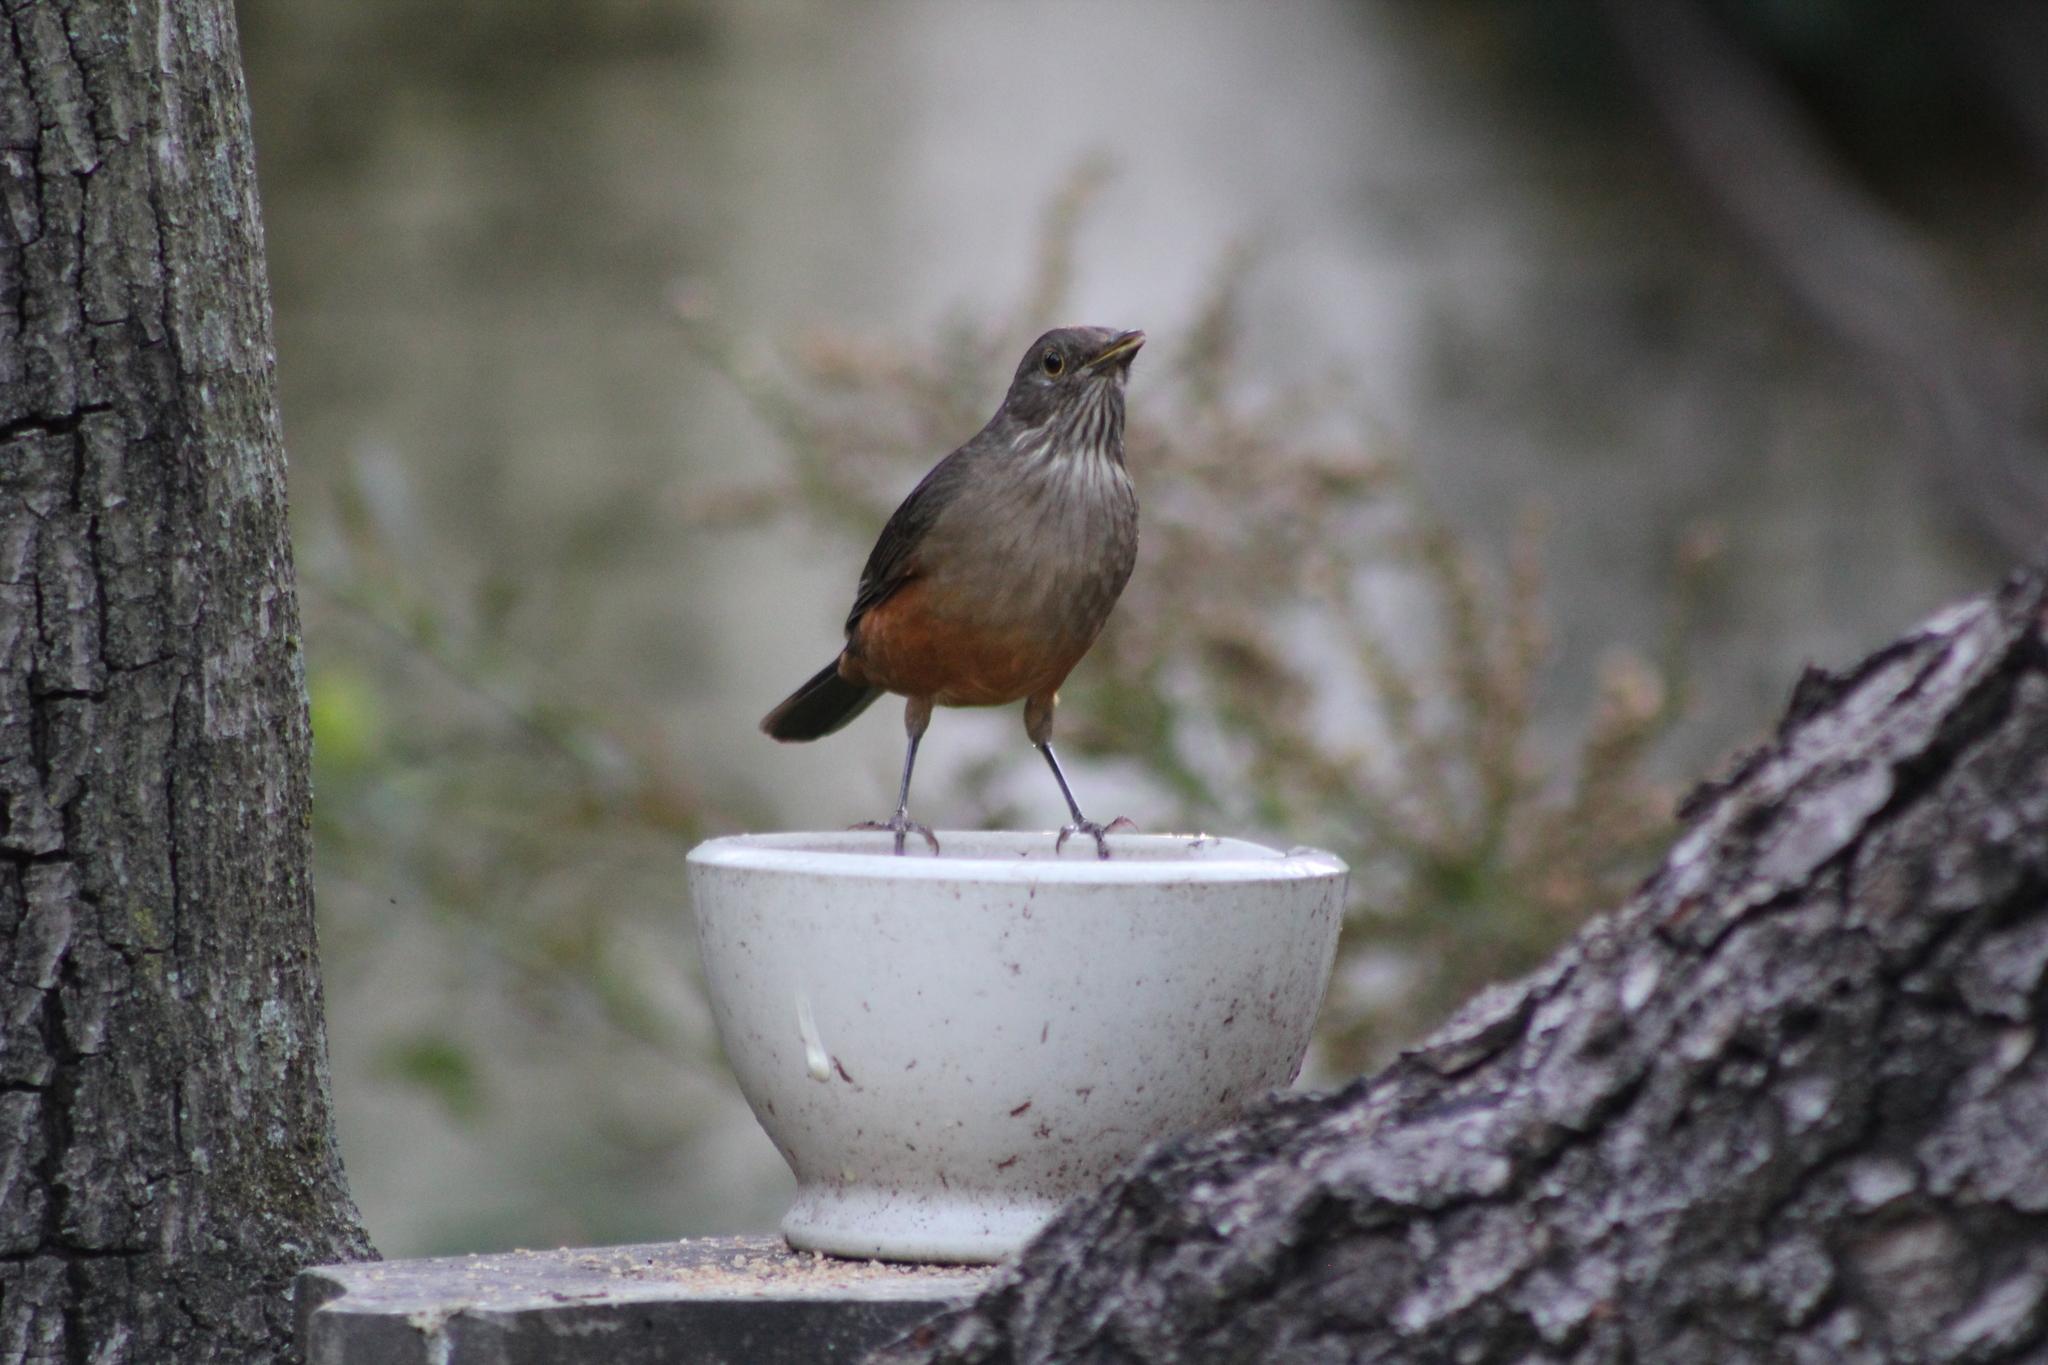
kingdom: Animalia
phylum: Chordata
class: Aves
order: Passeriformes
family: Turdidae
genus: Turdus
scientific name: Turdus rufiventris
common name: Rufous-bellied thrush
